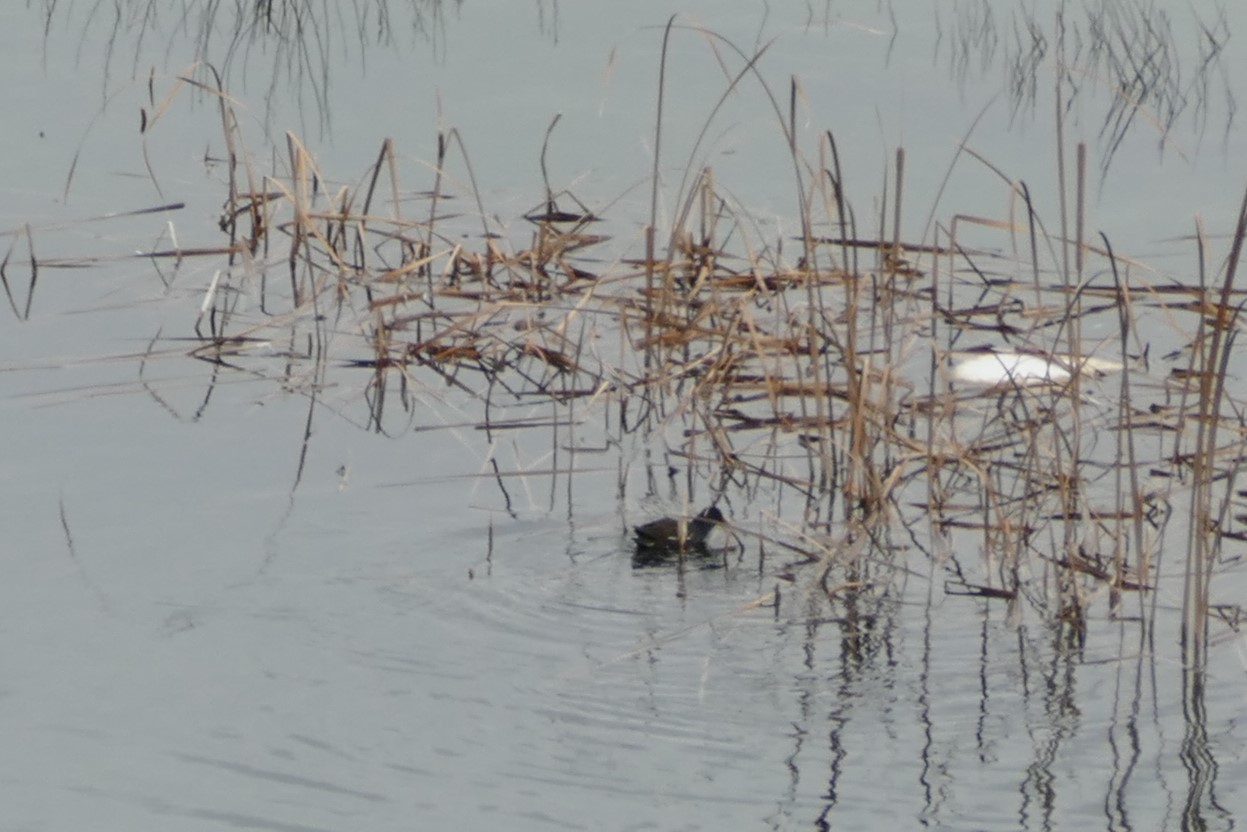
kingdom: Animalia
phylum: Chordata
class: Aves
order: Gruiformes
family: Rallidae
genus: Gallinula
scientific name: Gallinula chloropus
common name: Common moorhen
